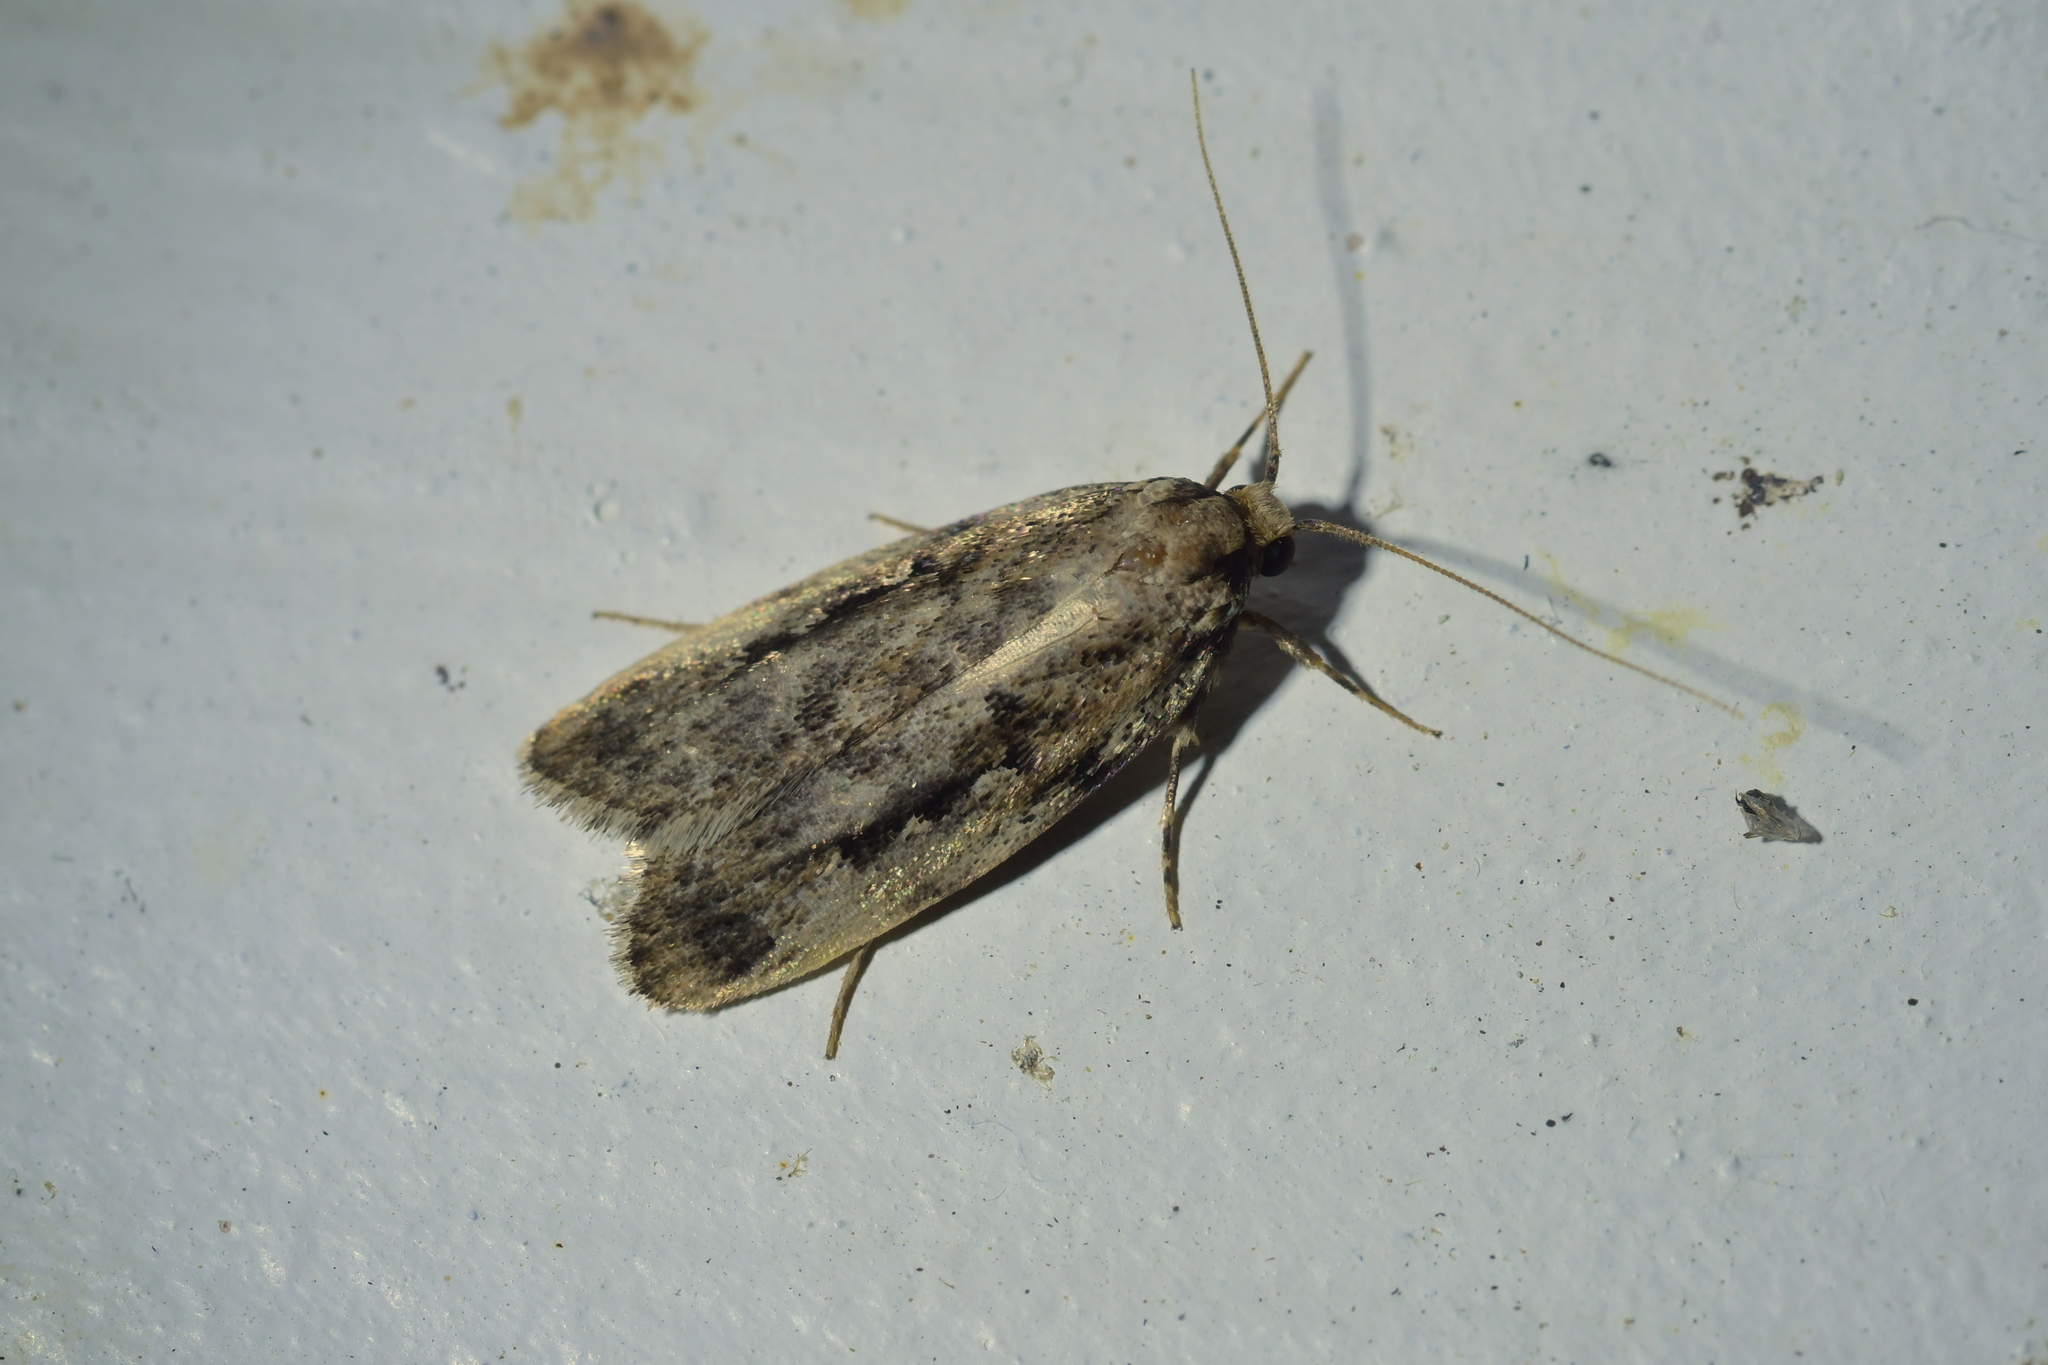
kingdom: Animalia
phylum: Arthropoda
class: Insecta
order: Lepidoptera
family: Oecophoridae
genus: Barea
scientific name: Barea exarcha
